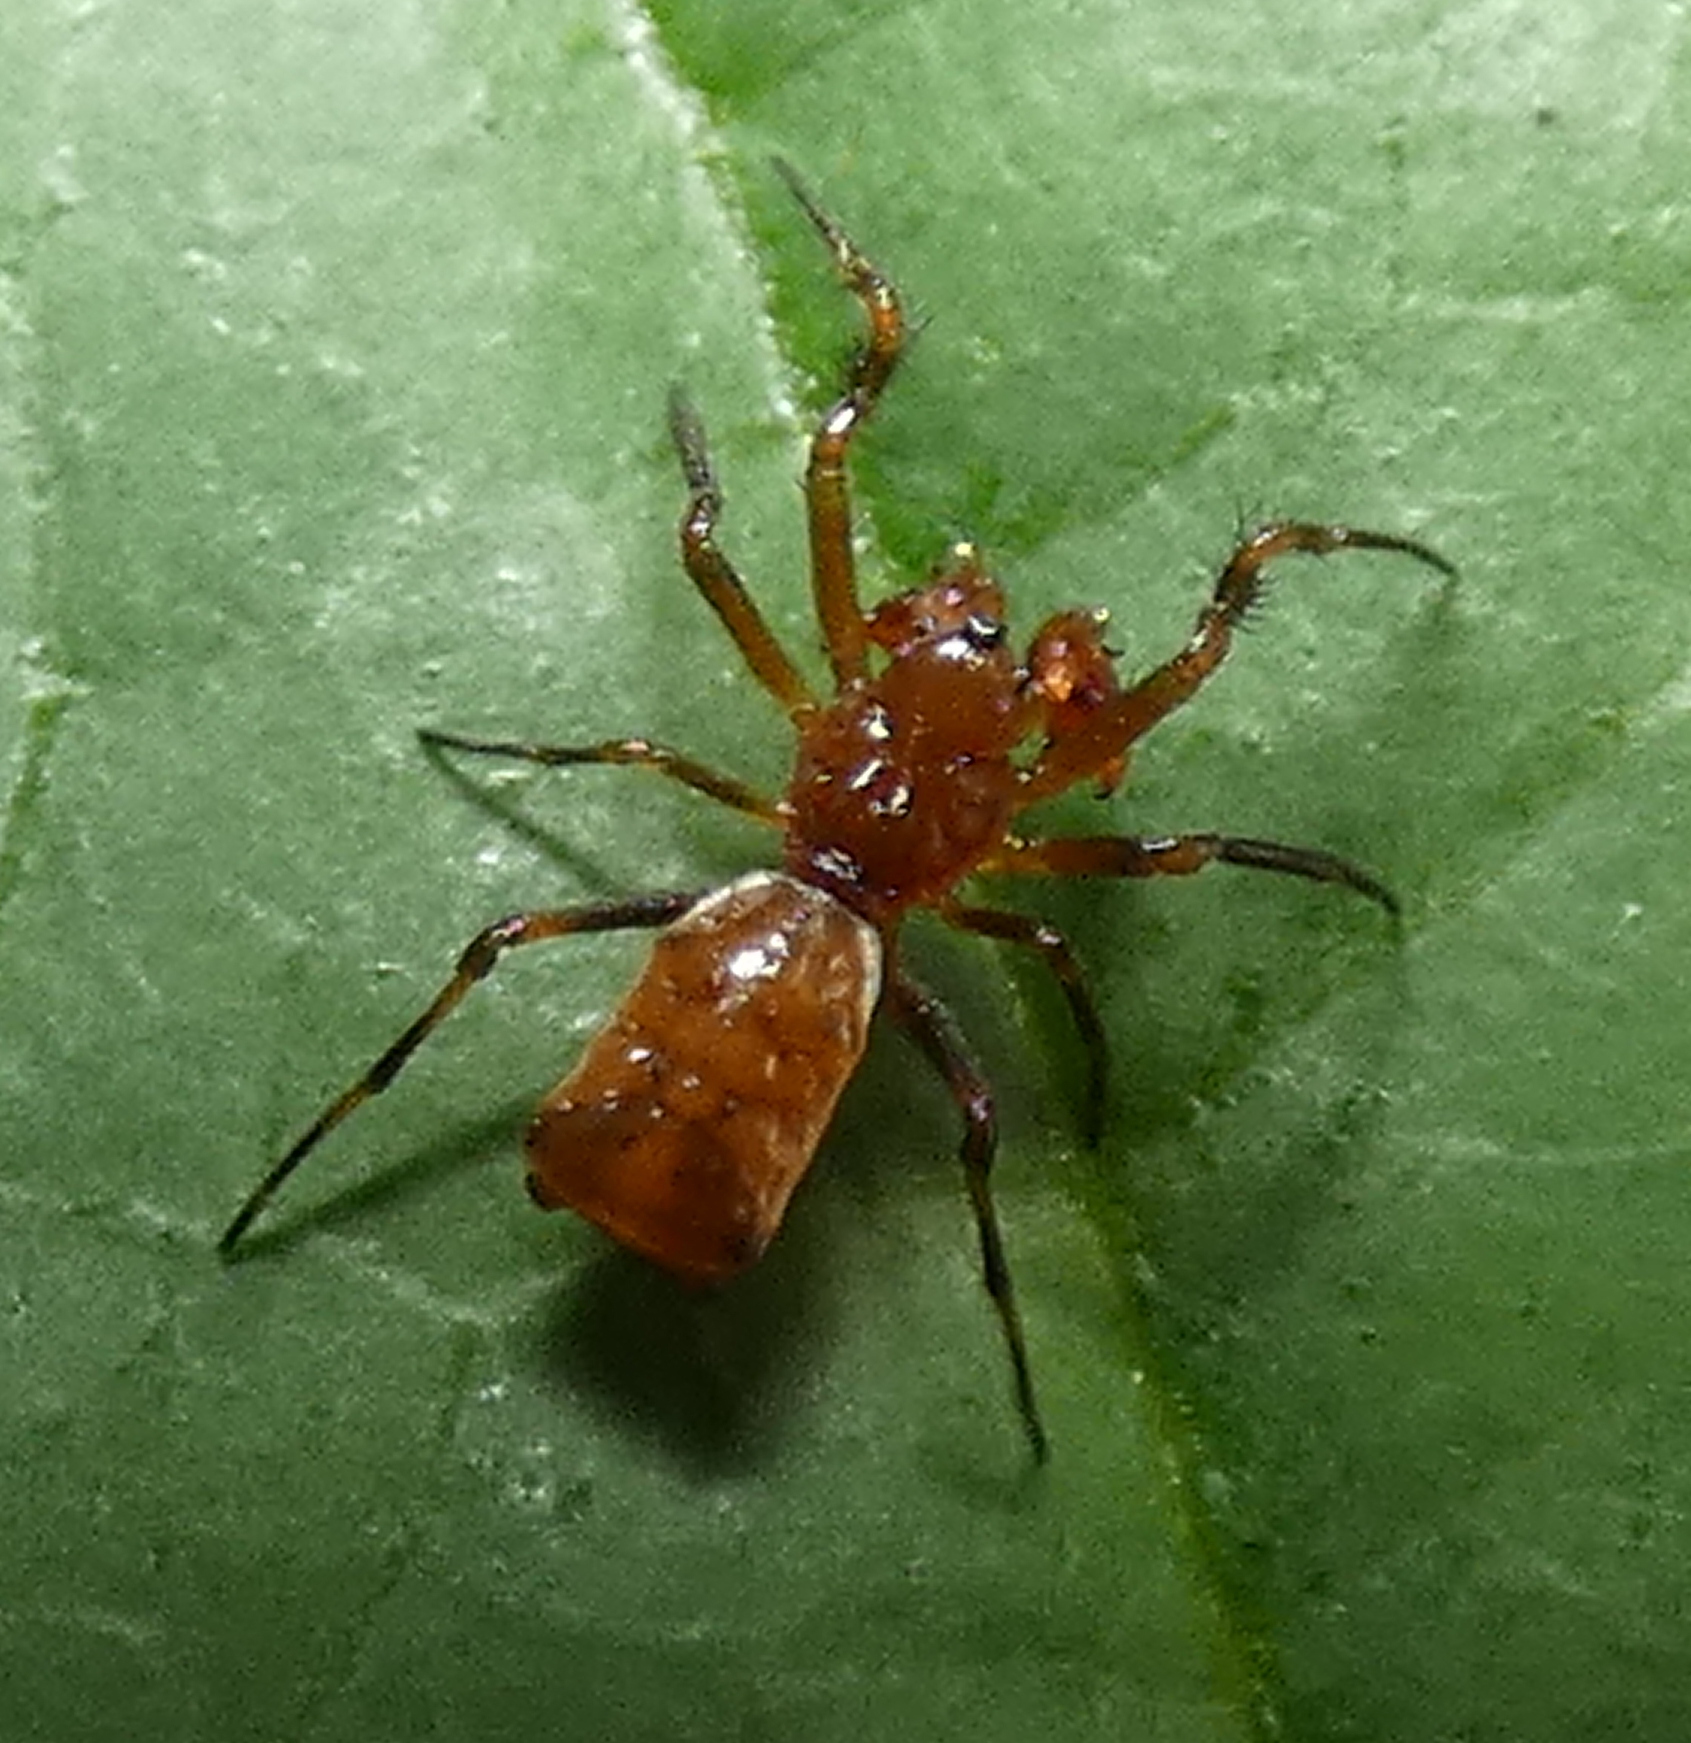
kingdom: Animalia
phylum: Arthropoda
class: Arachnida
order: Araneae
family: Araneidae
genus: Micrathena
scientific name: Micrathena picta
